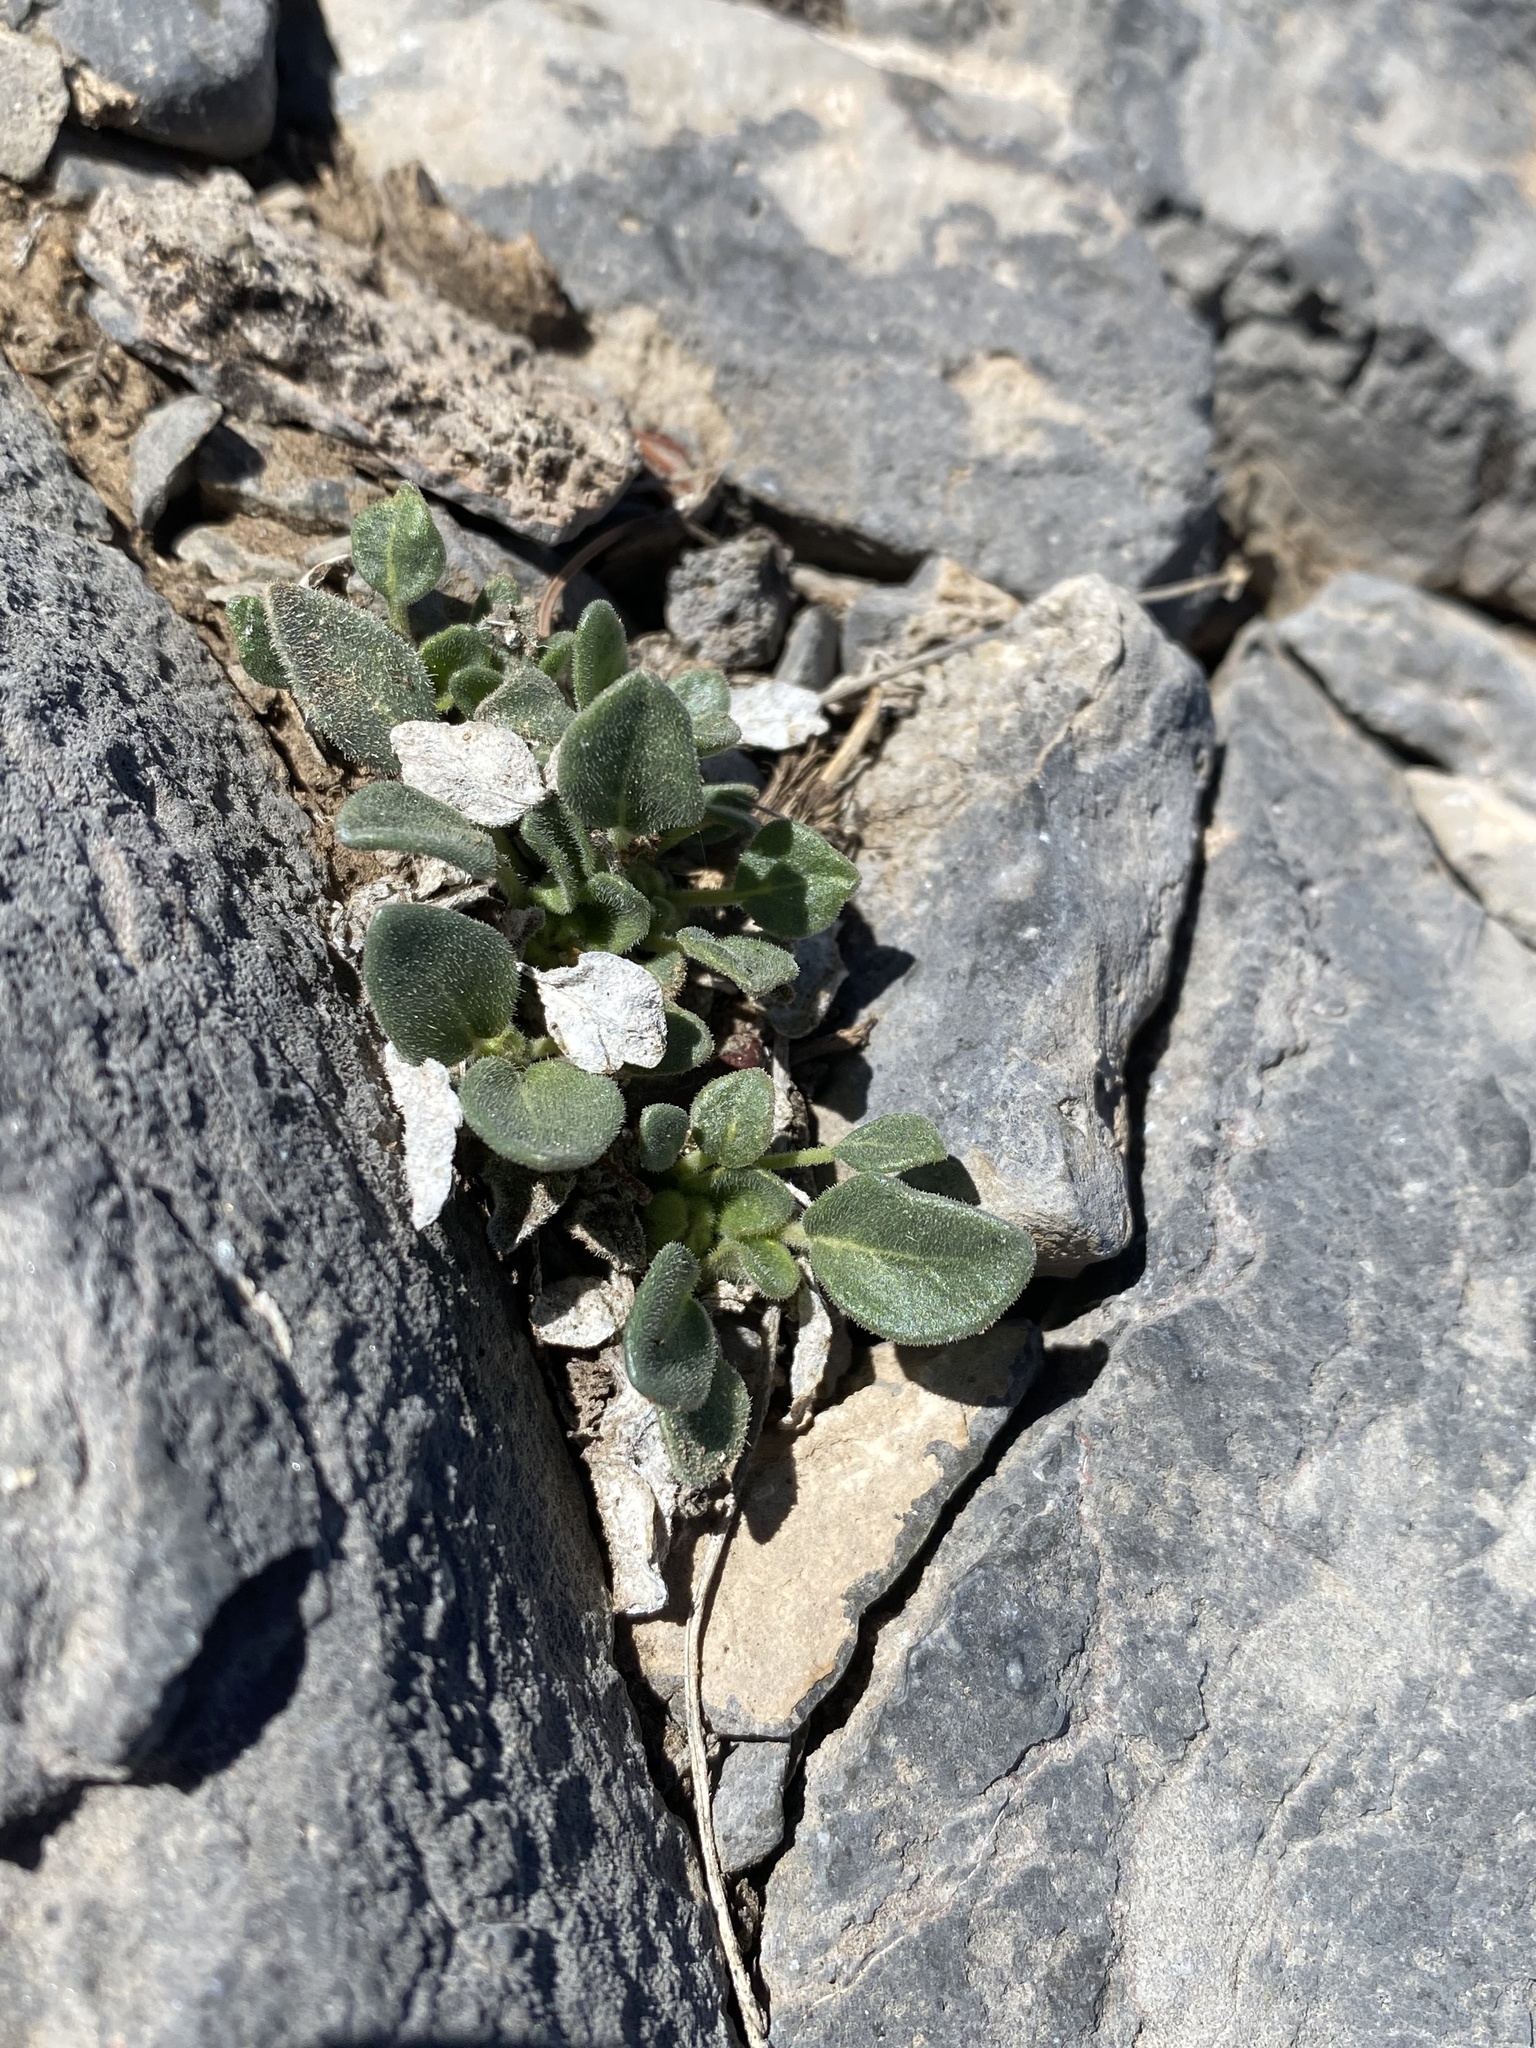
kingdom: Plantae
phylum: Tracheophyta
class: Magnoliopsida
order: Caryophyllales
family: Nyctaginaceae
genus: Abronia
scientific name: Abronia nana
